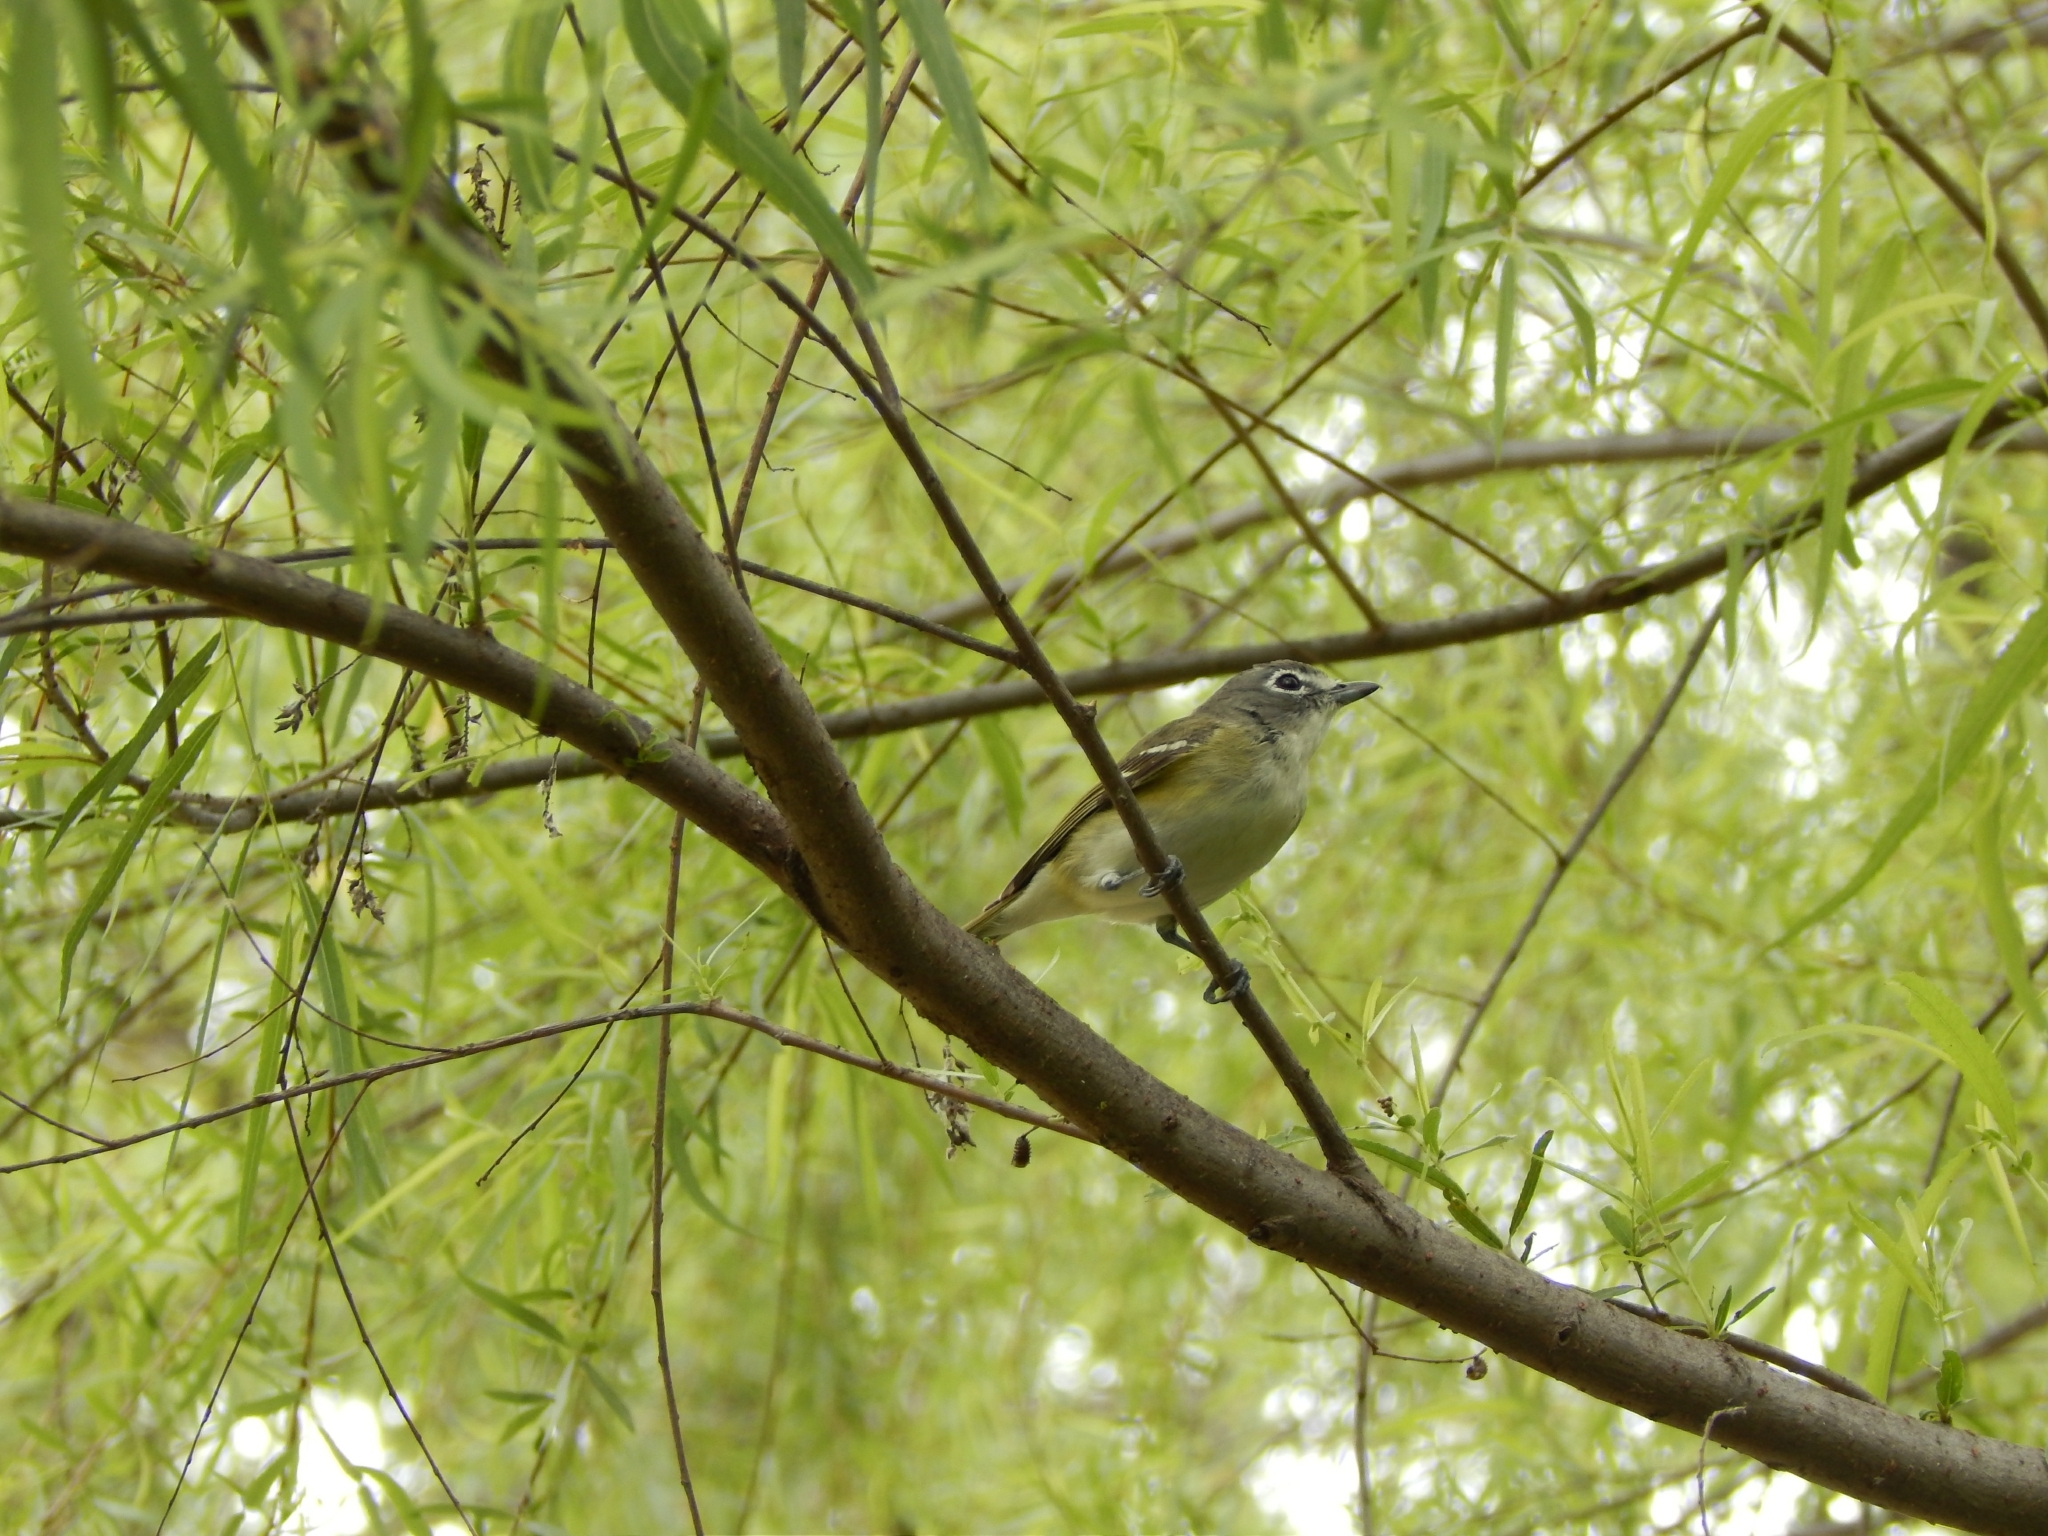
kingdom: Animalia
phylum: Chordata
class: Aves
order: Passeriformes
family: Vireonidae
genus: Vireo
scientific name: Vireo solitarius
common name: Blue-headed vireo
